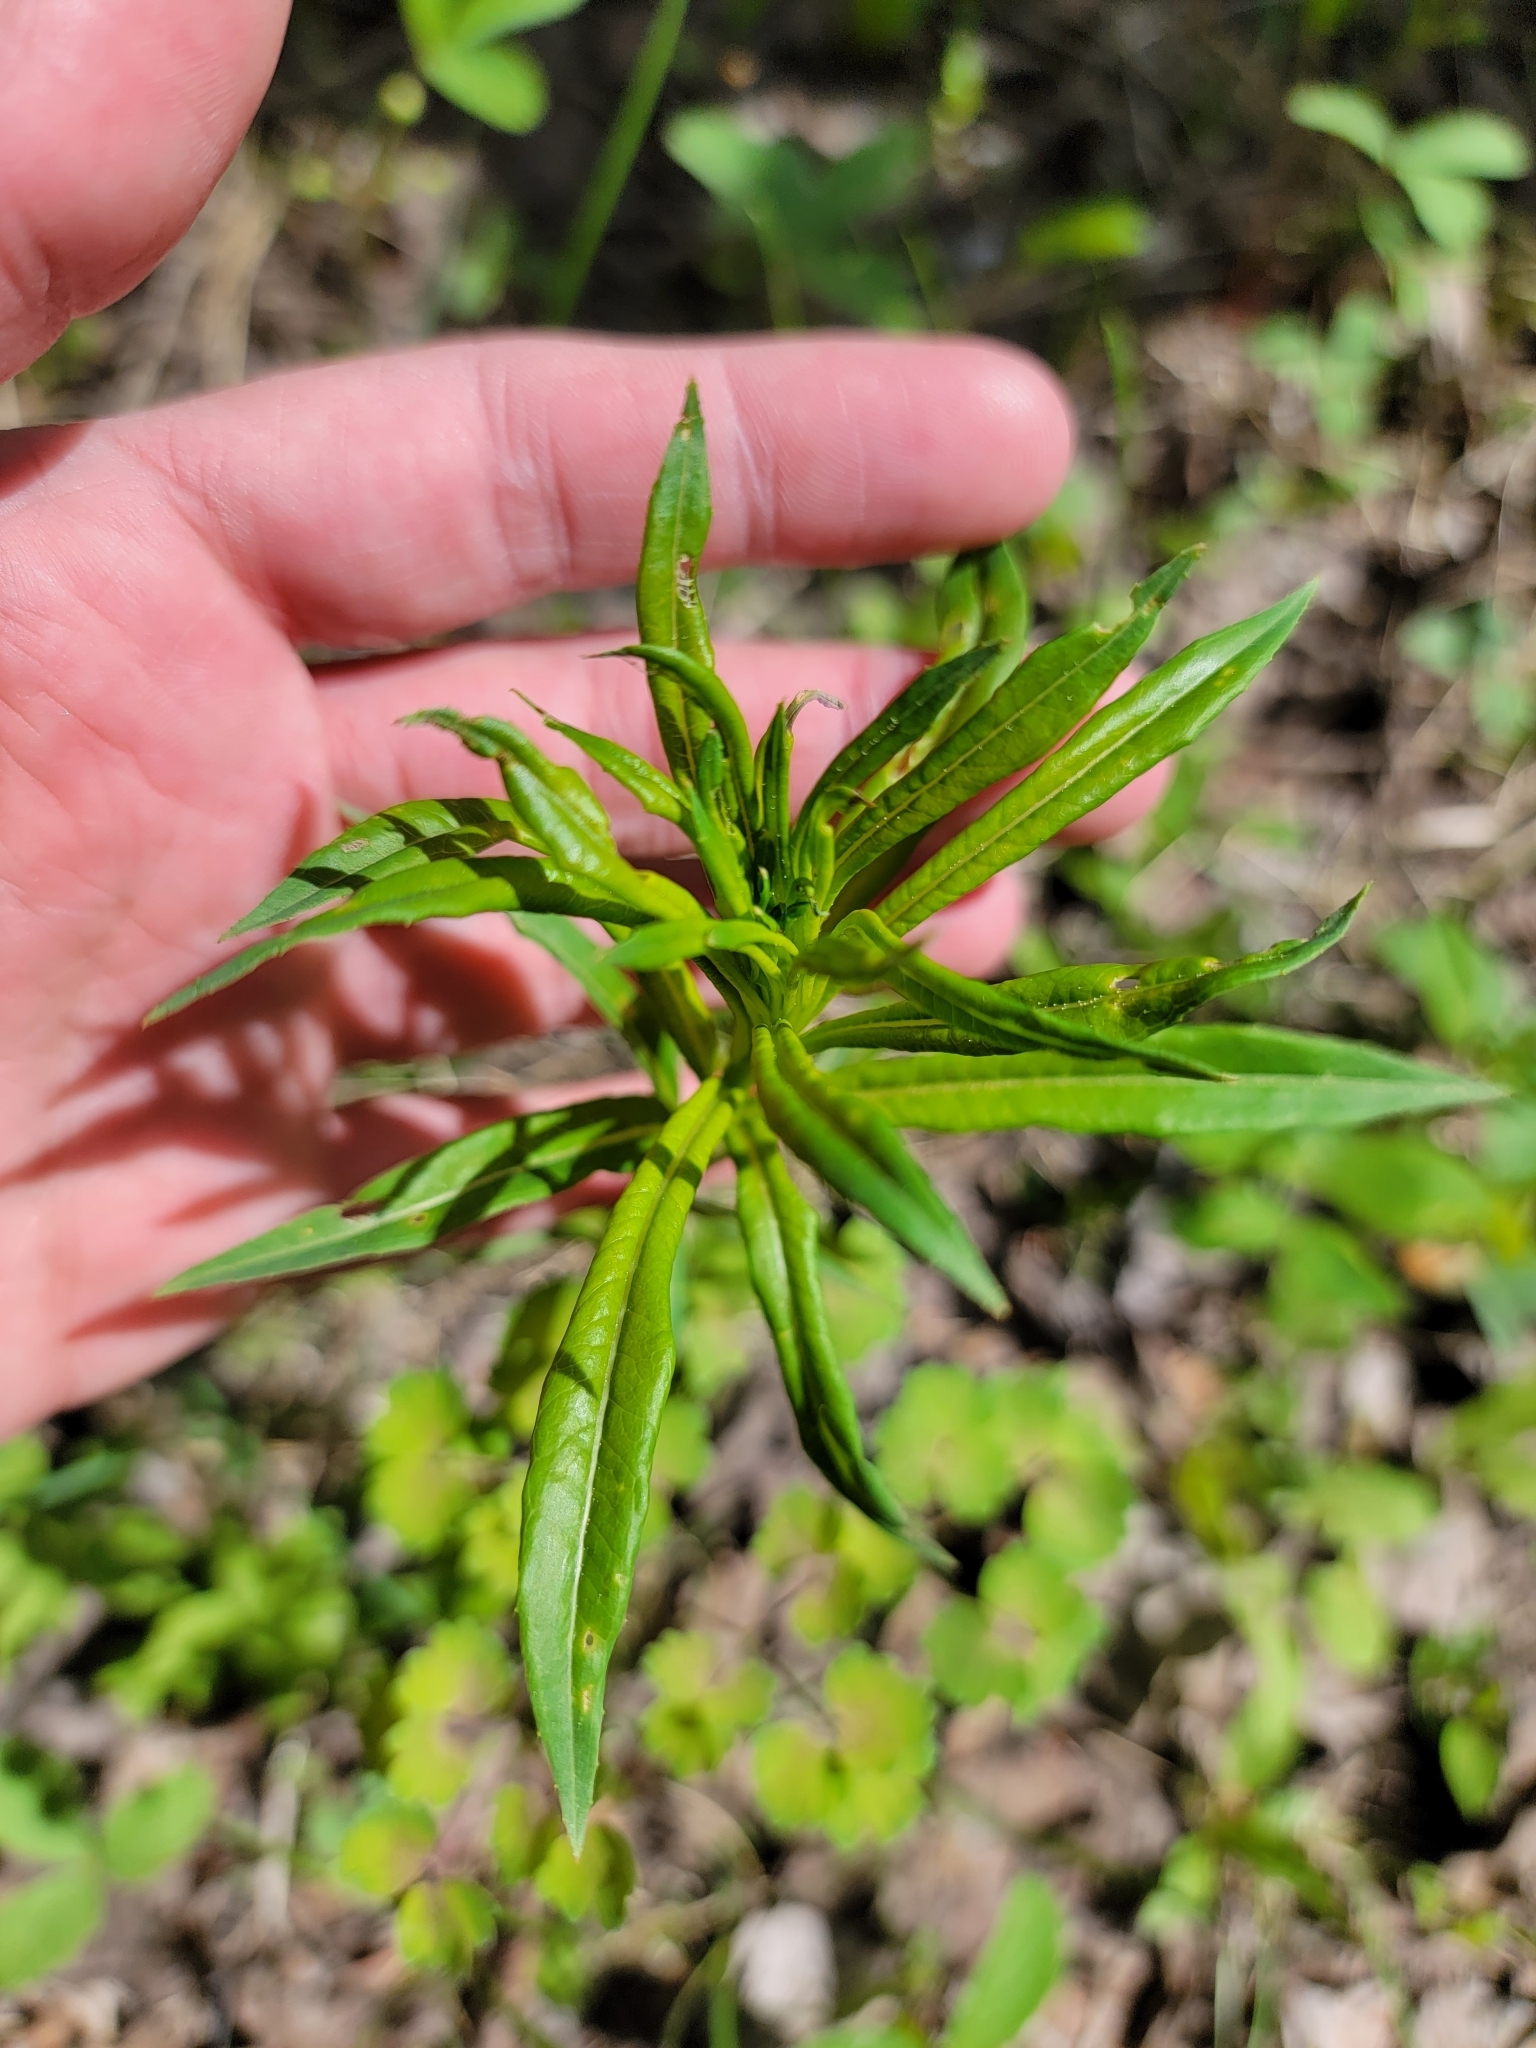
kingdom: Plantae
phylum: Tracheophyta
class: Magnoliopsida
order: Myrtales
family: Onagraceae
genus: Chamaenerion
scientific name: Chamaenerion angustifolium
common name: Fireweed
